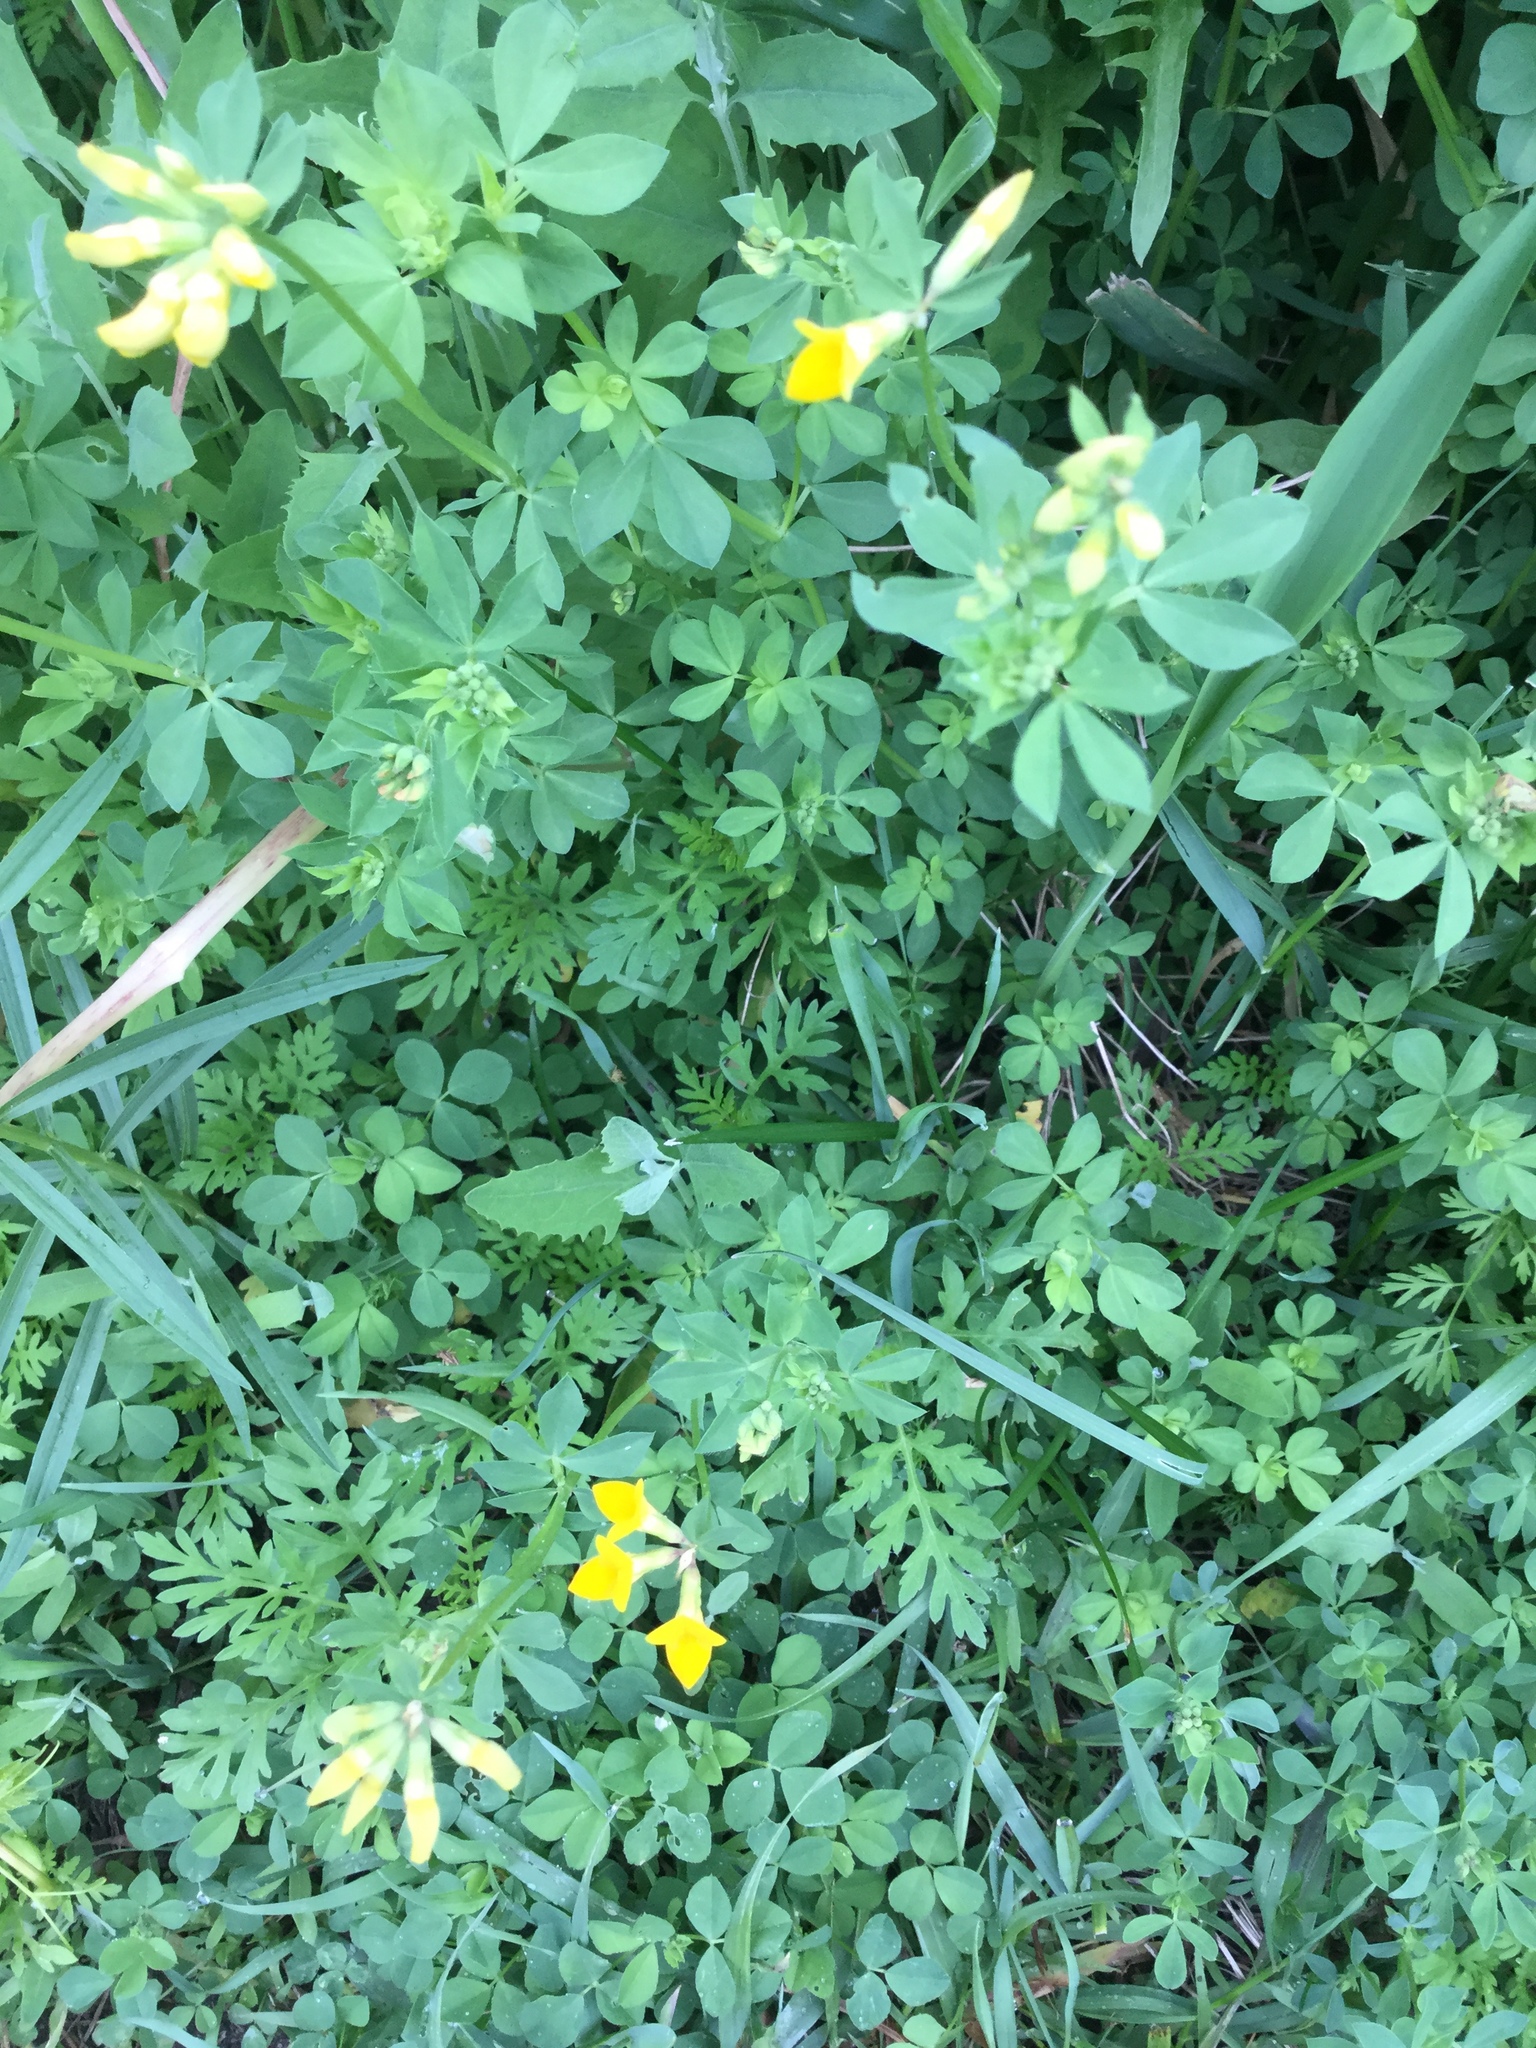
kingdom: Plantae
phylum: Tracheophyta
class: Magnoliopsida
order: Fabales
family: Fabaceae
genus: Lotus
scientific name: Lotus corniculatus
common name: Common bird's-foot-trefoil
